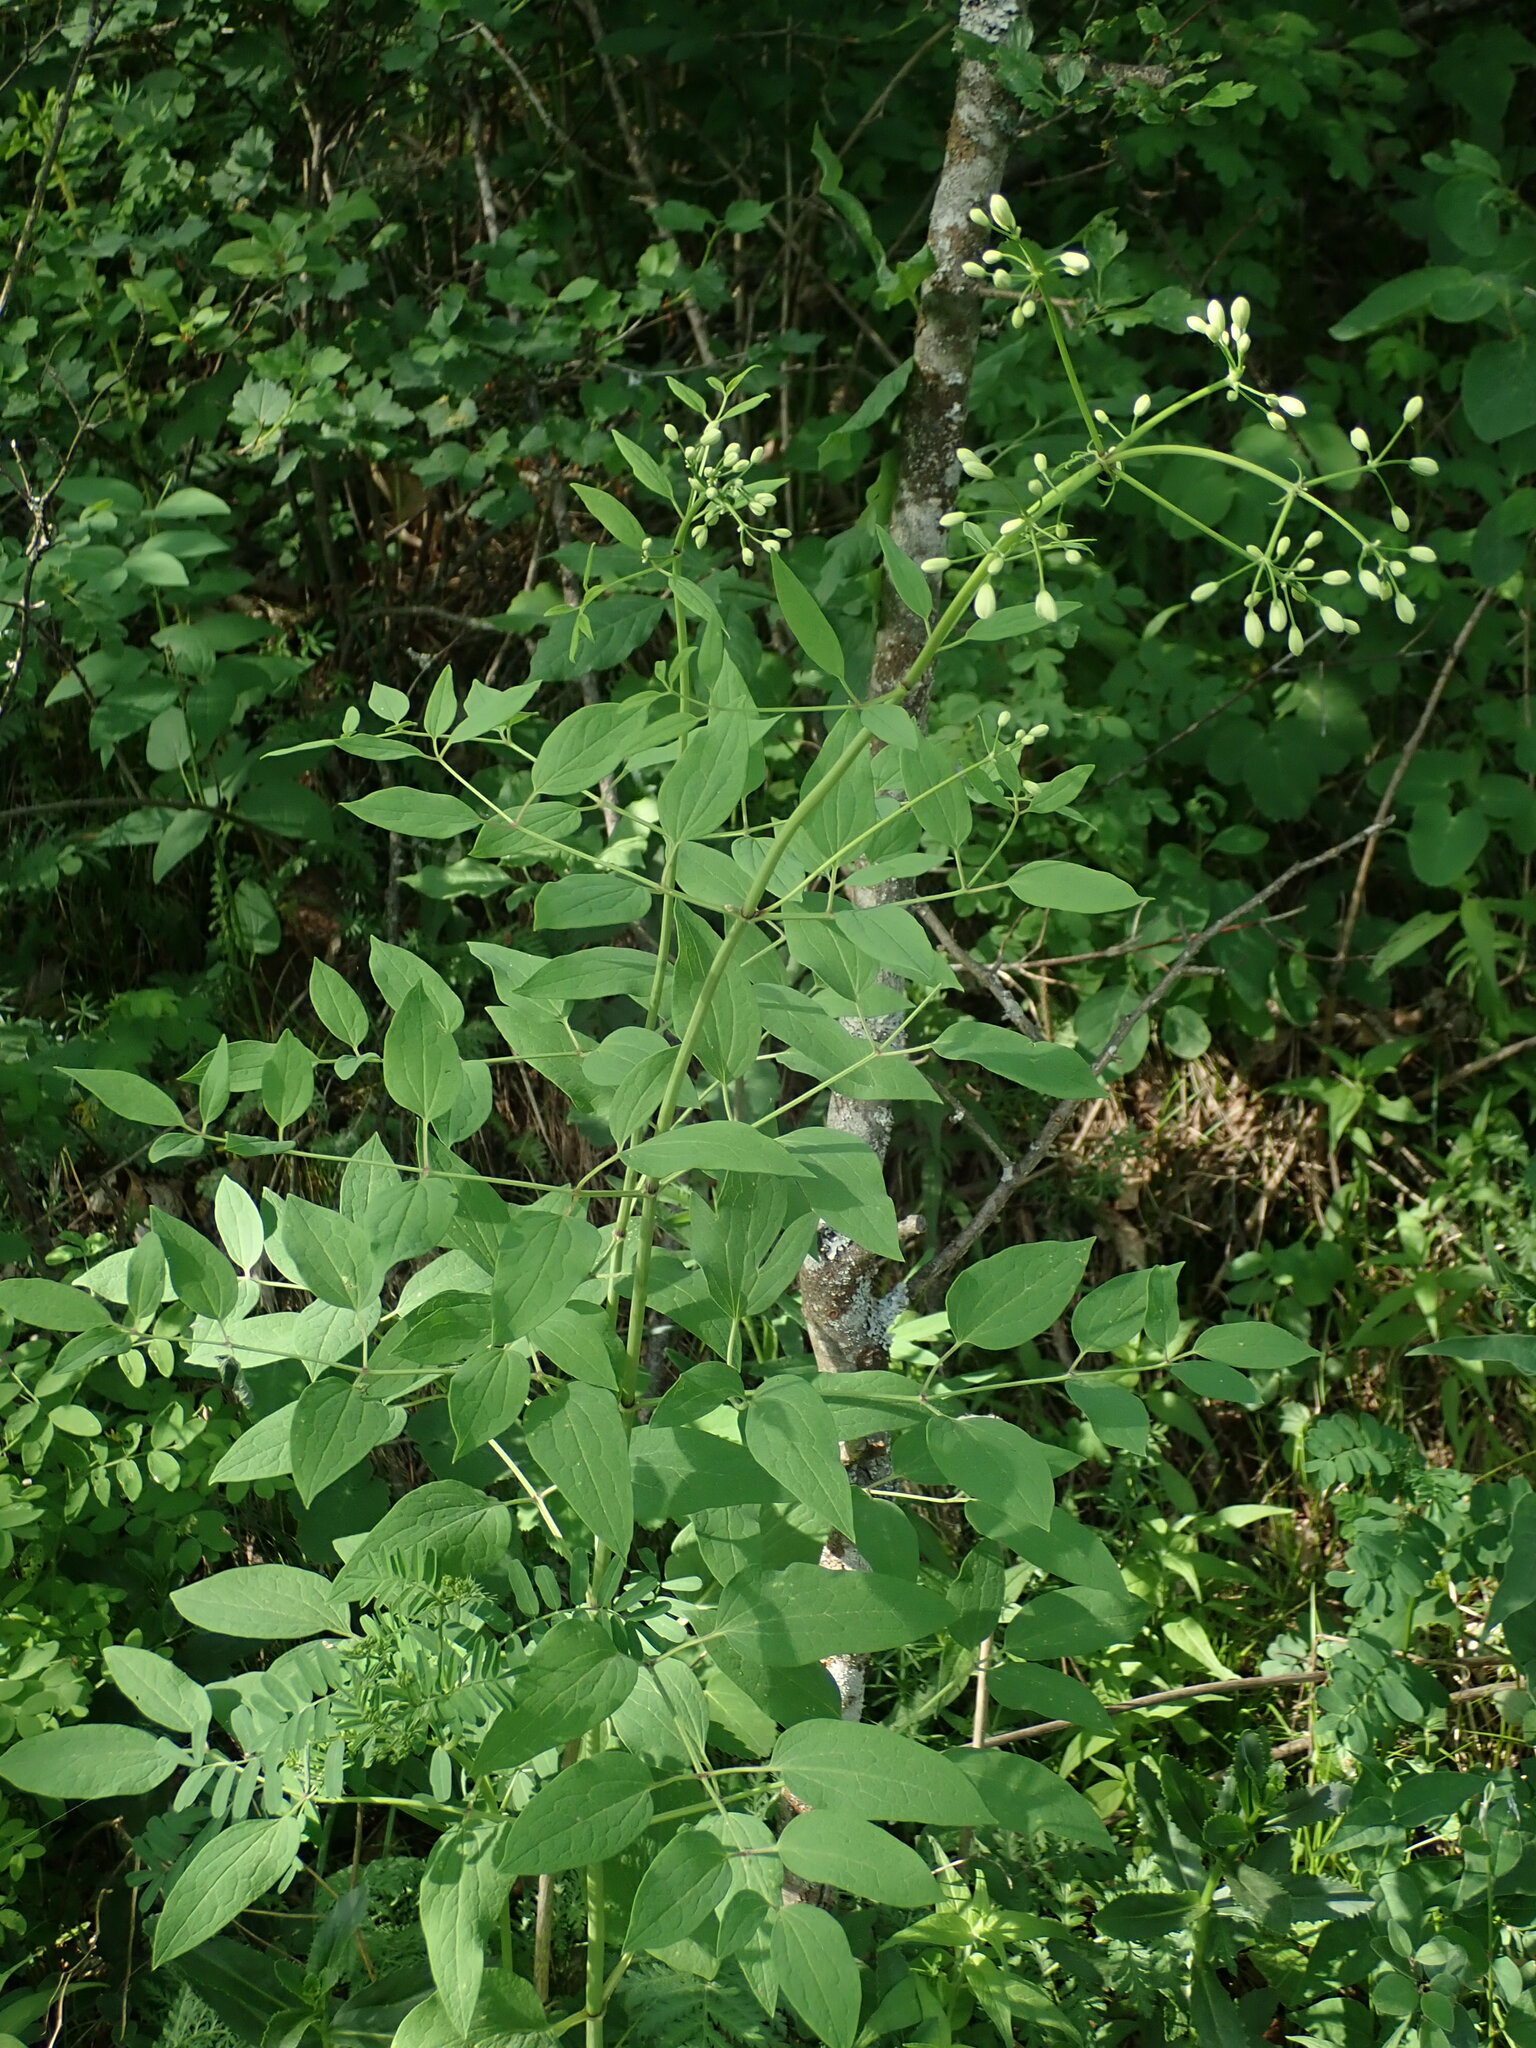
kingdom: Plantae
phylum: Tracheophyta
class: Magnoliopsida
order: Ranunculales
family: Ranunculaceae
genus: Clematis
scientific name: Clematis recta
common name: Ground clematis
